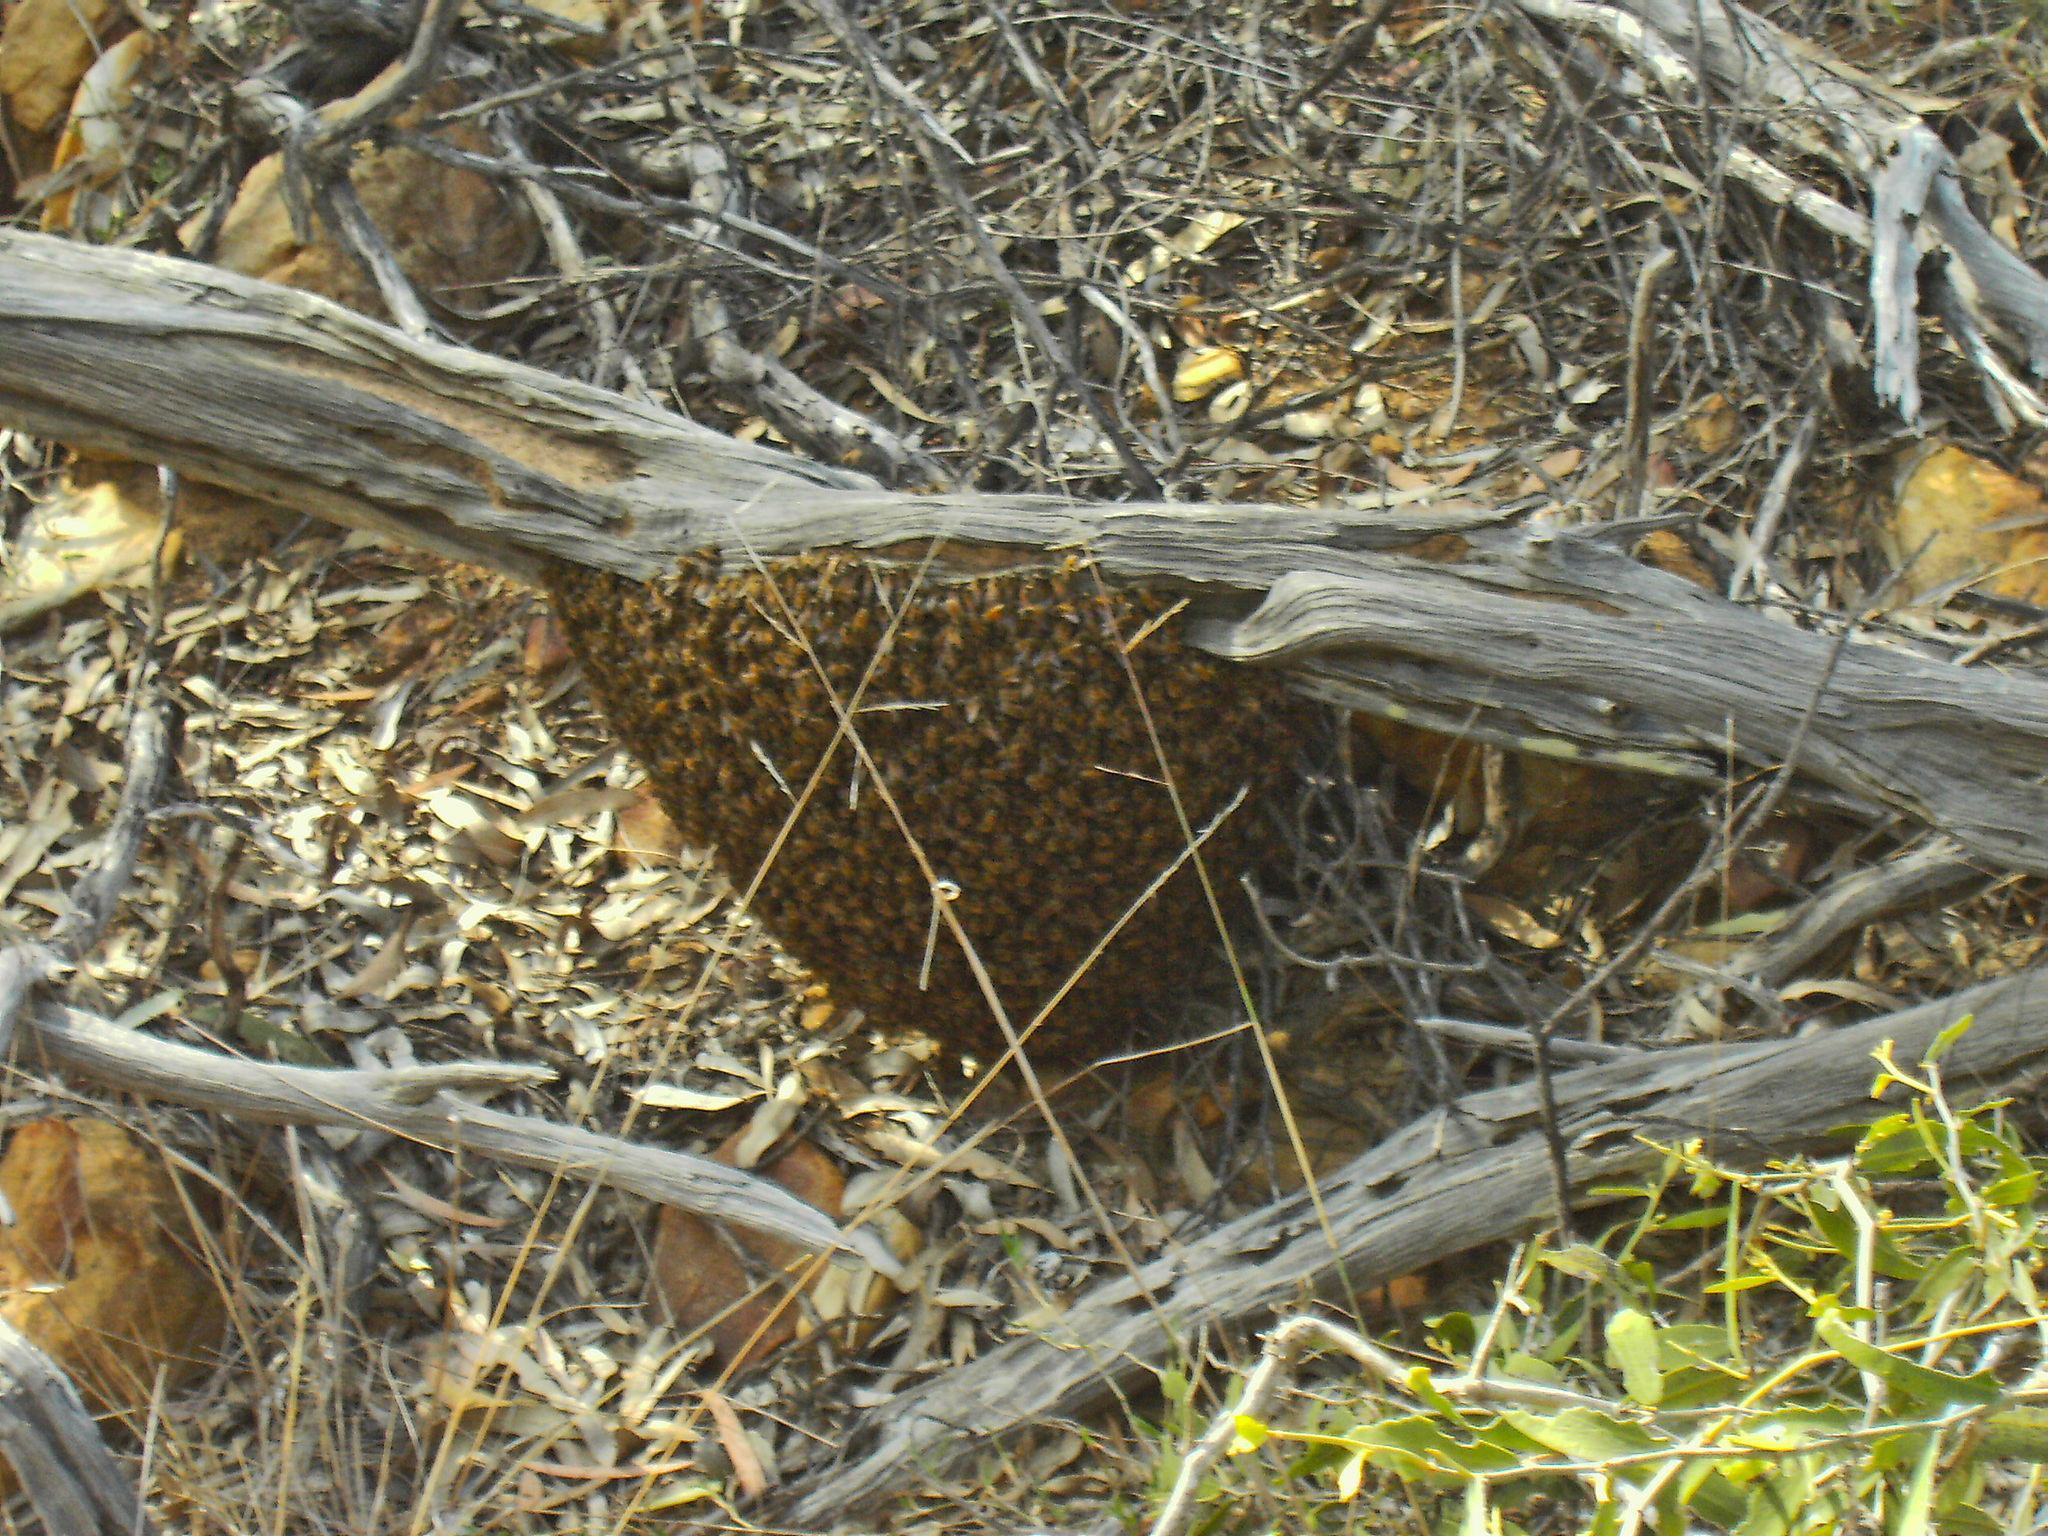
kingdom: Animalia
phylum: Arthropoda
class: Insecta
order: Hymenoptera
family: Apidae
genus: Apis
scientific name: Apis mellifera
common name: Honey bee
